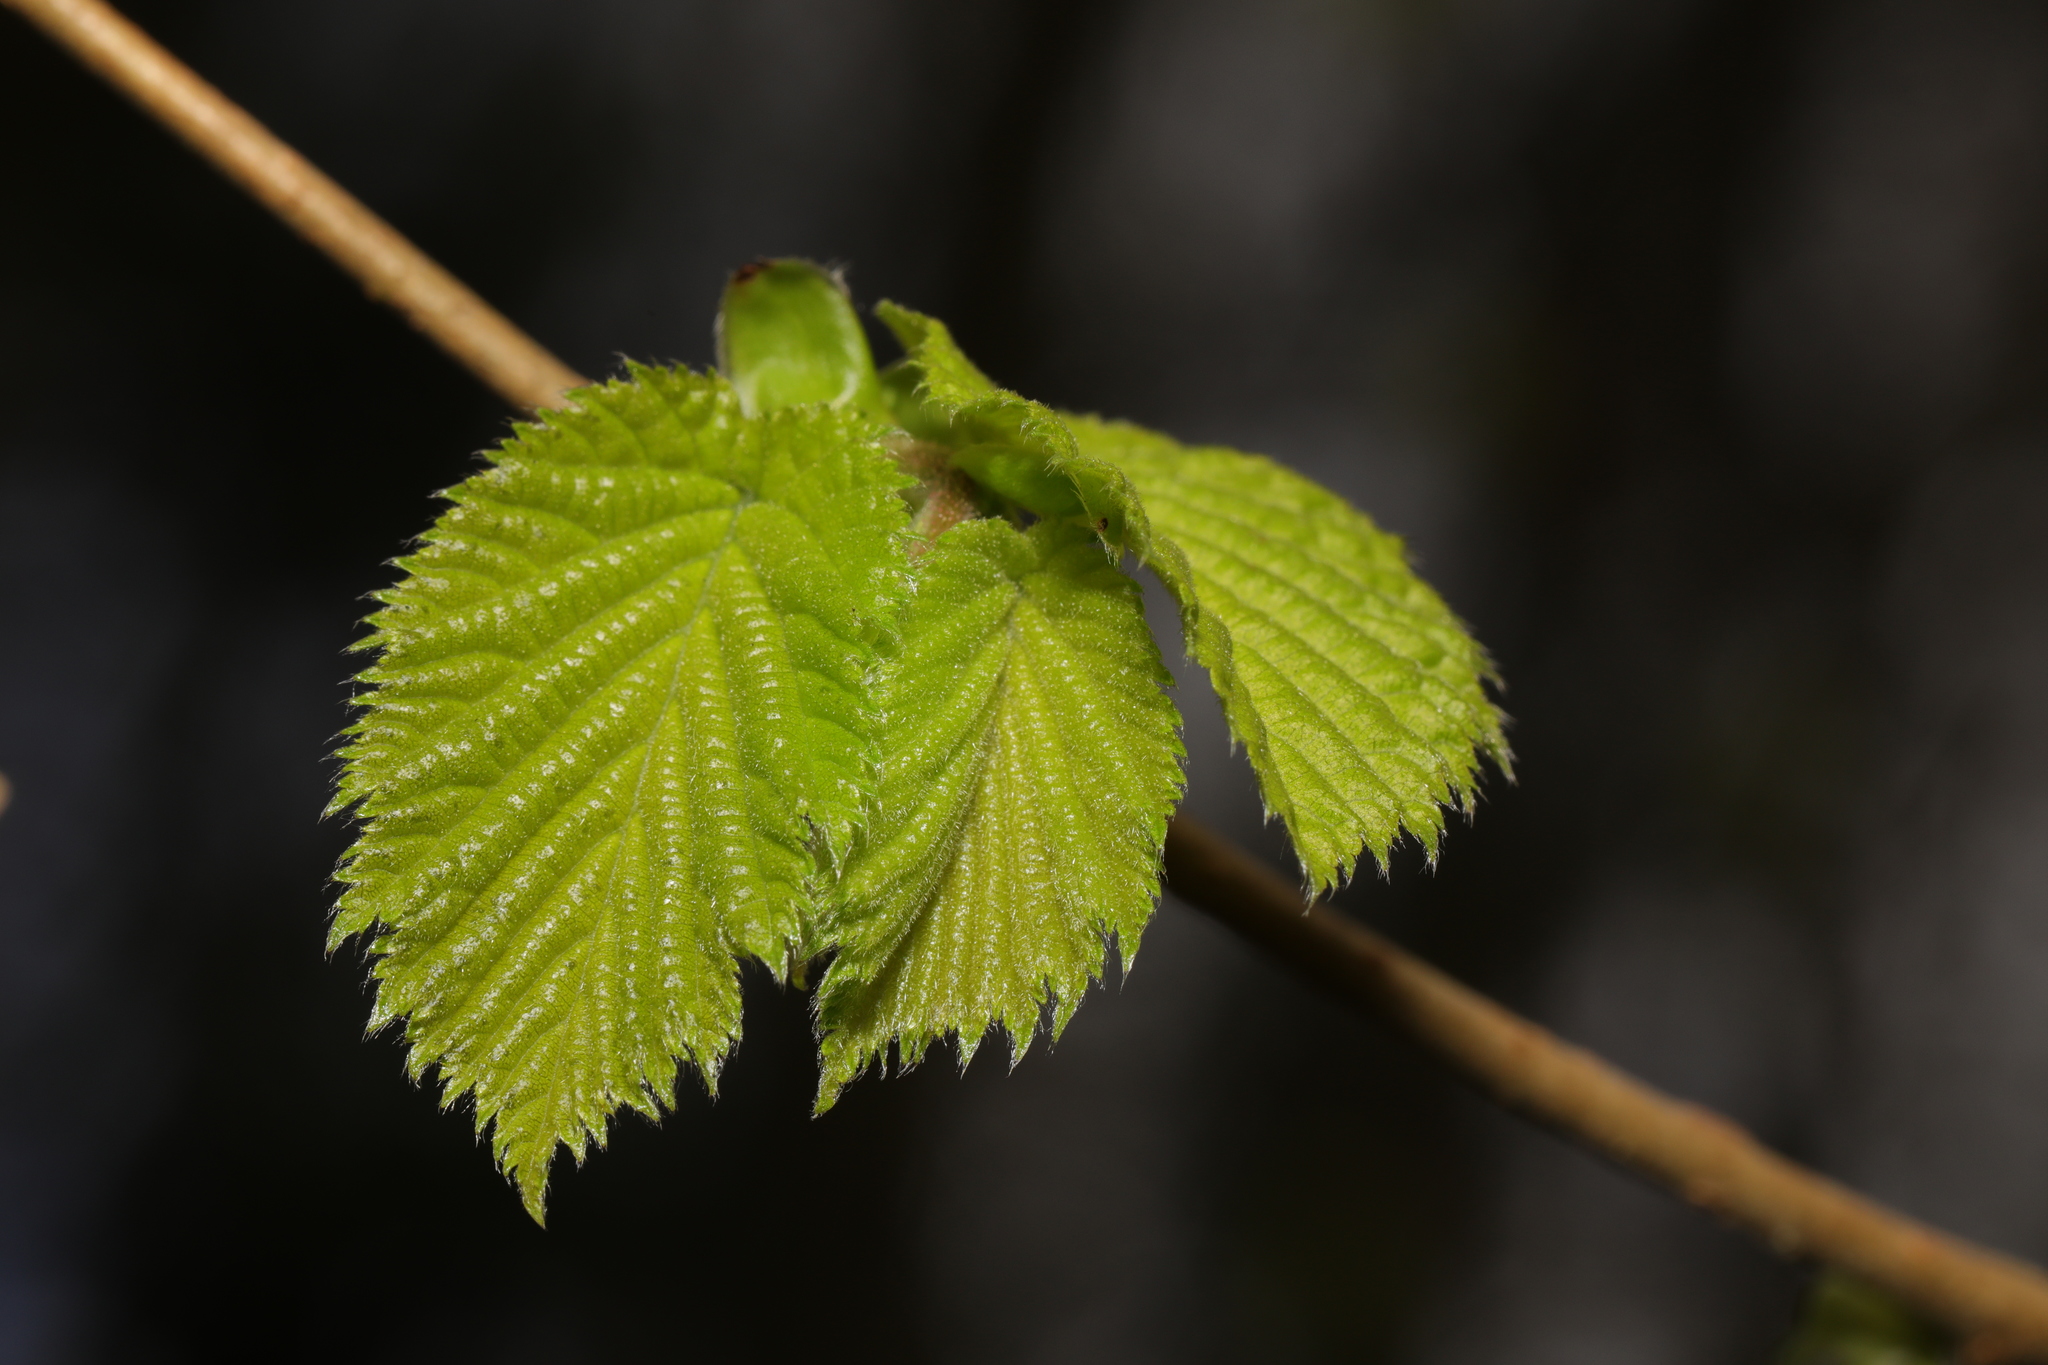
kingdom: Plantae
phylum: Tracheophyta
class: Magnoliopsida
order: Fagales
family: Betulaceae
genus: Corylus
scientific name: Corylus avellana
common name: European hazel
